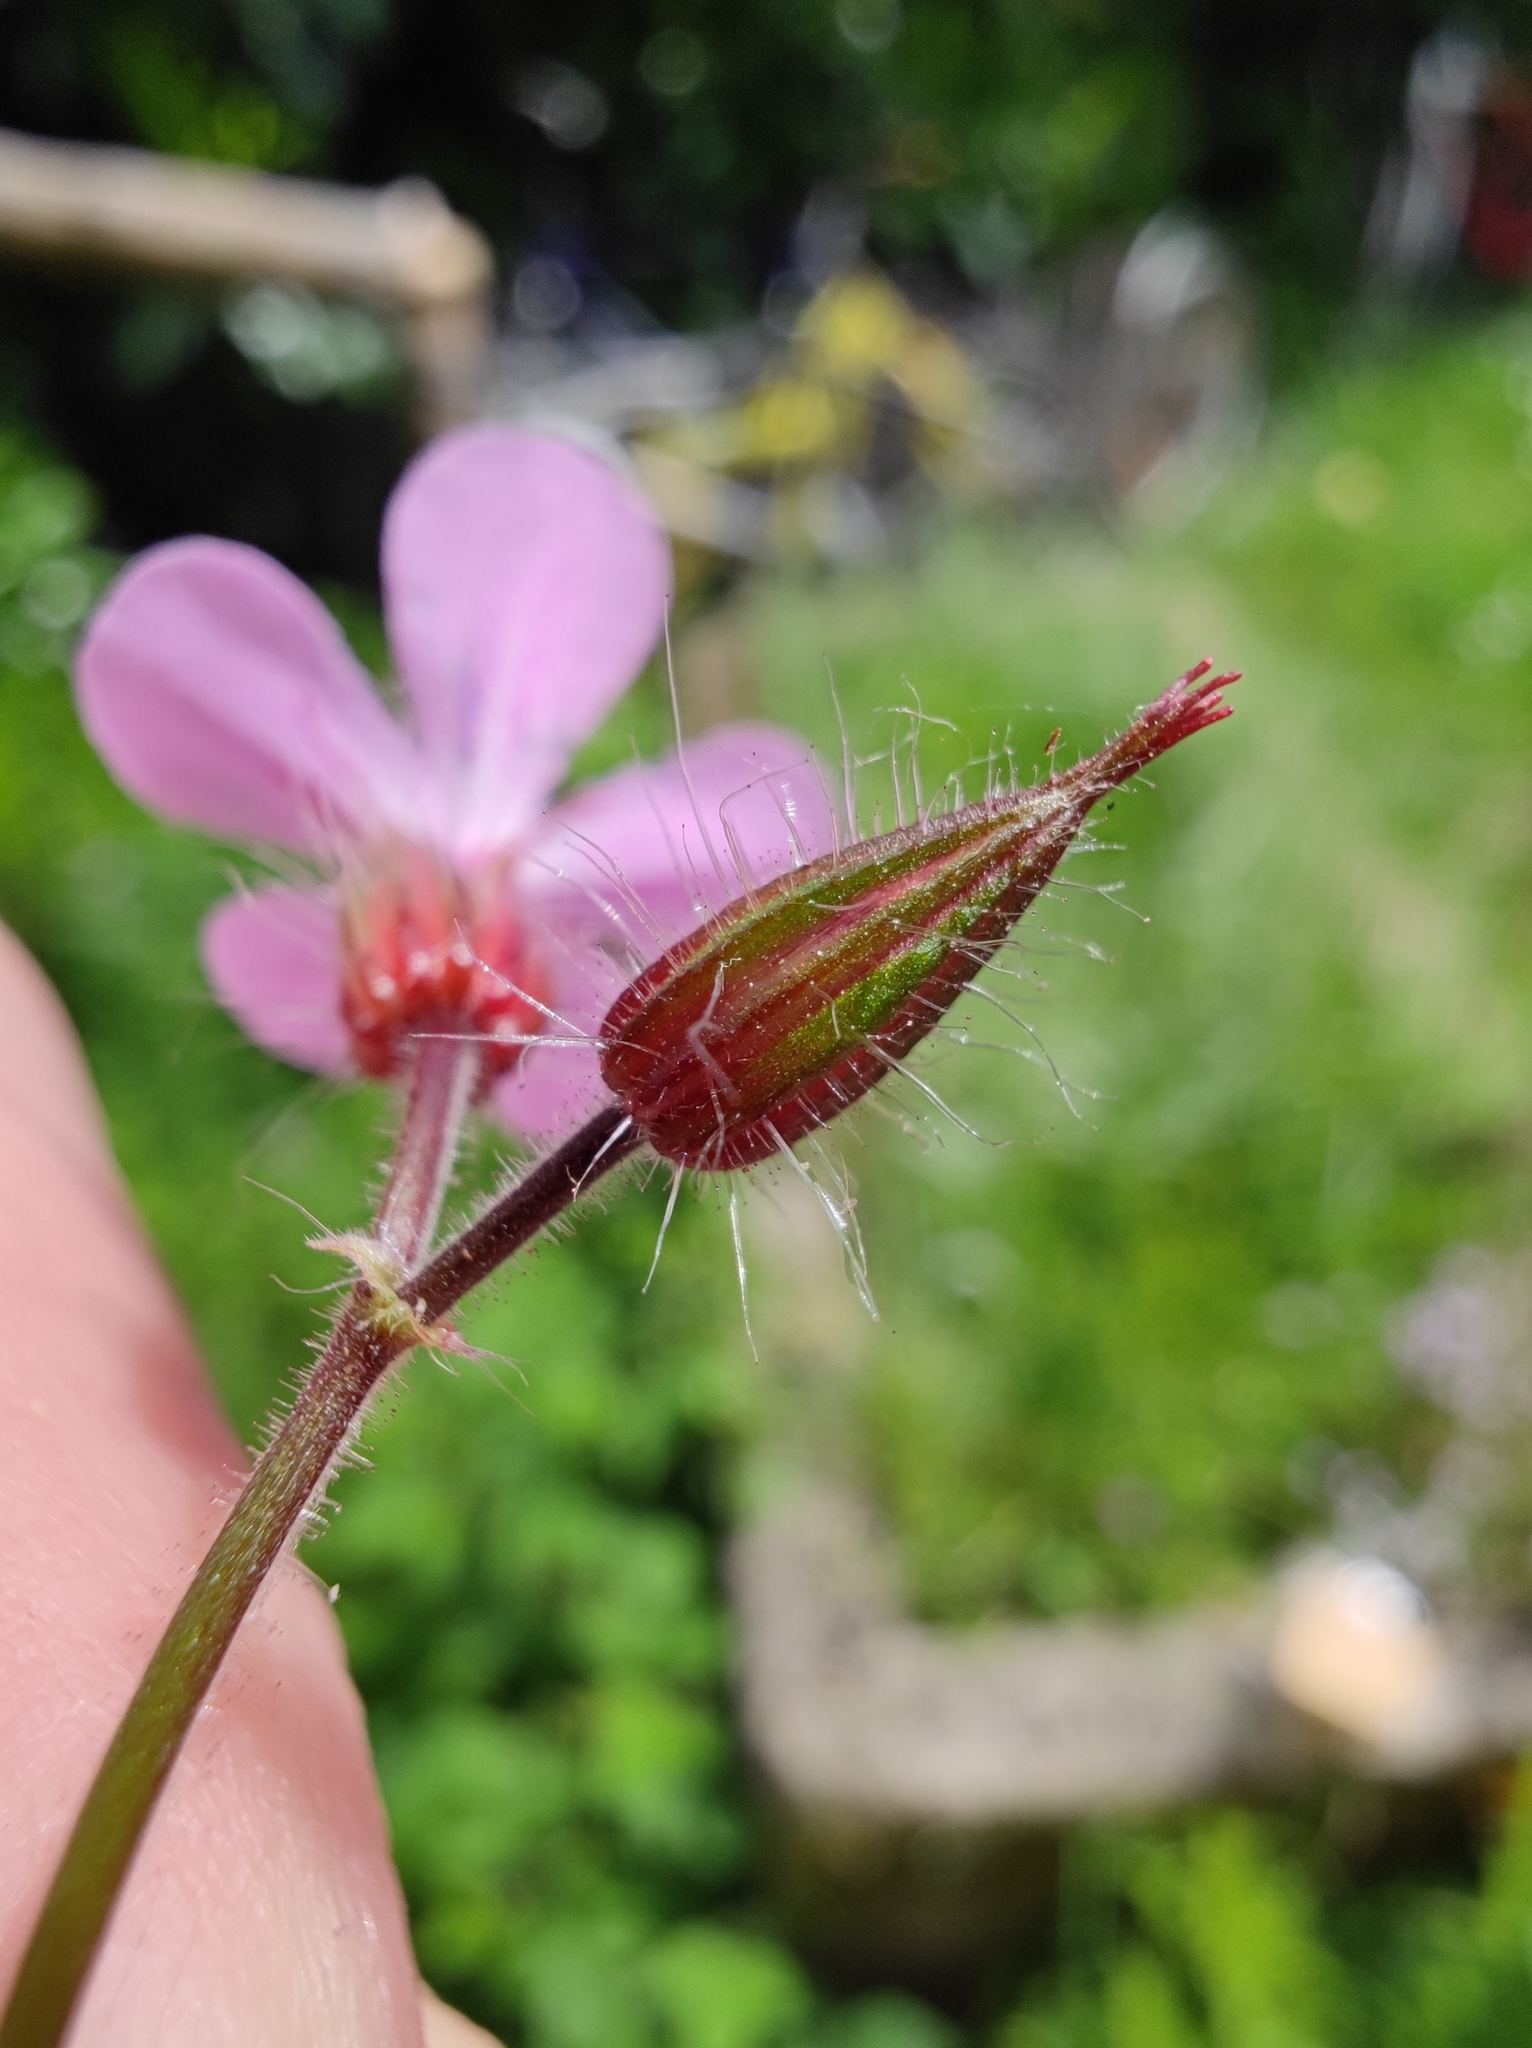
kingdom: Plantae
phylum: Tracheophyta
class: Magnoliopsida
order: Geraniales
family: Geraniaceae
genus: Geranium
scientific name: Geranium robertianum
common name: Herb-robert
